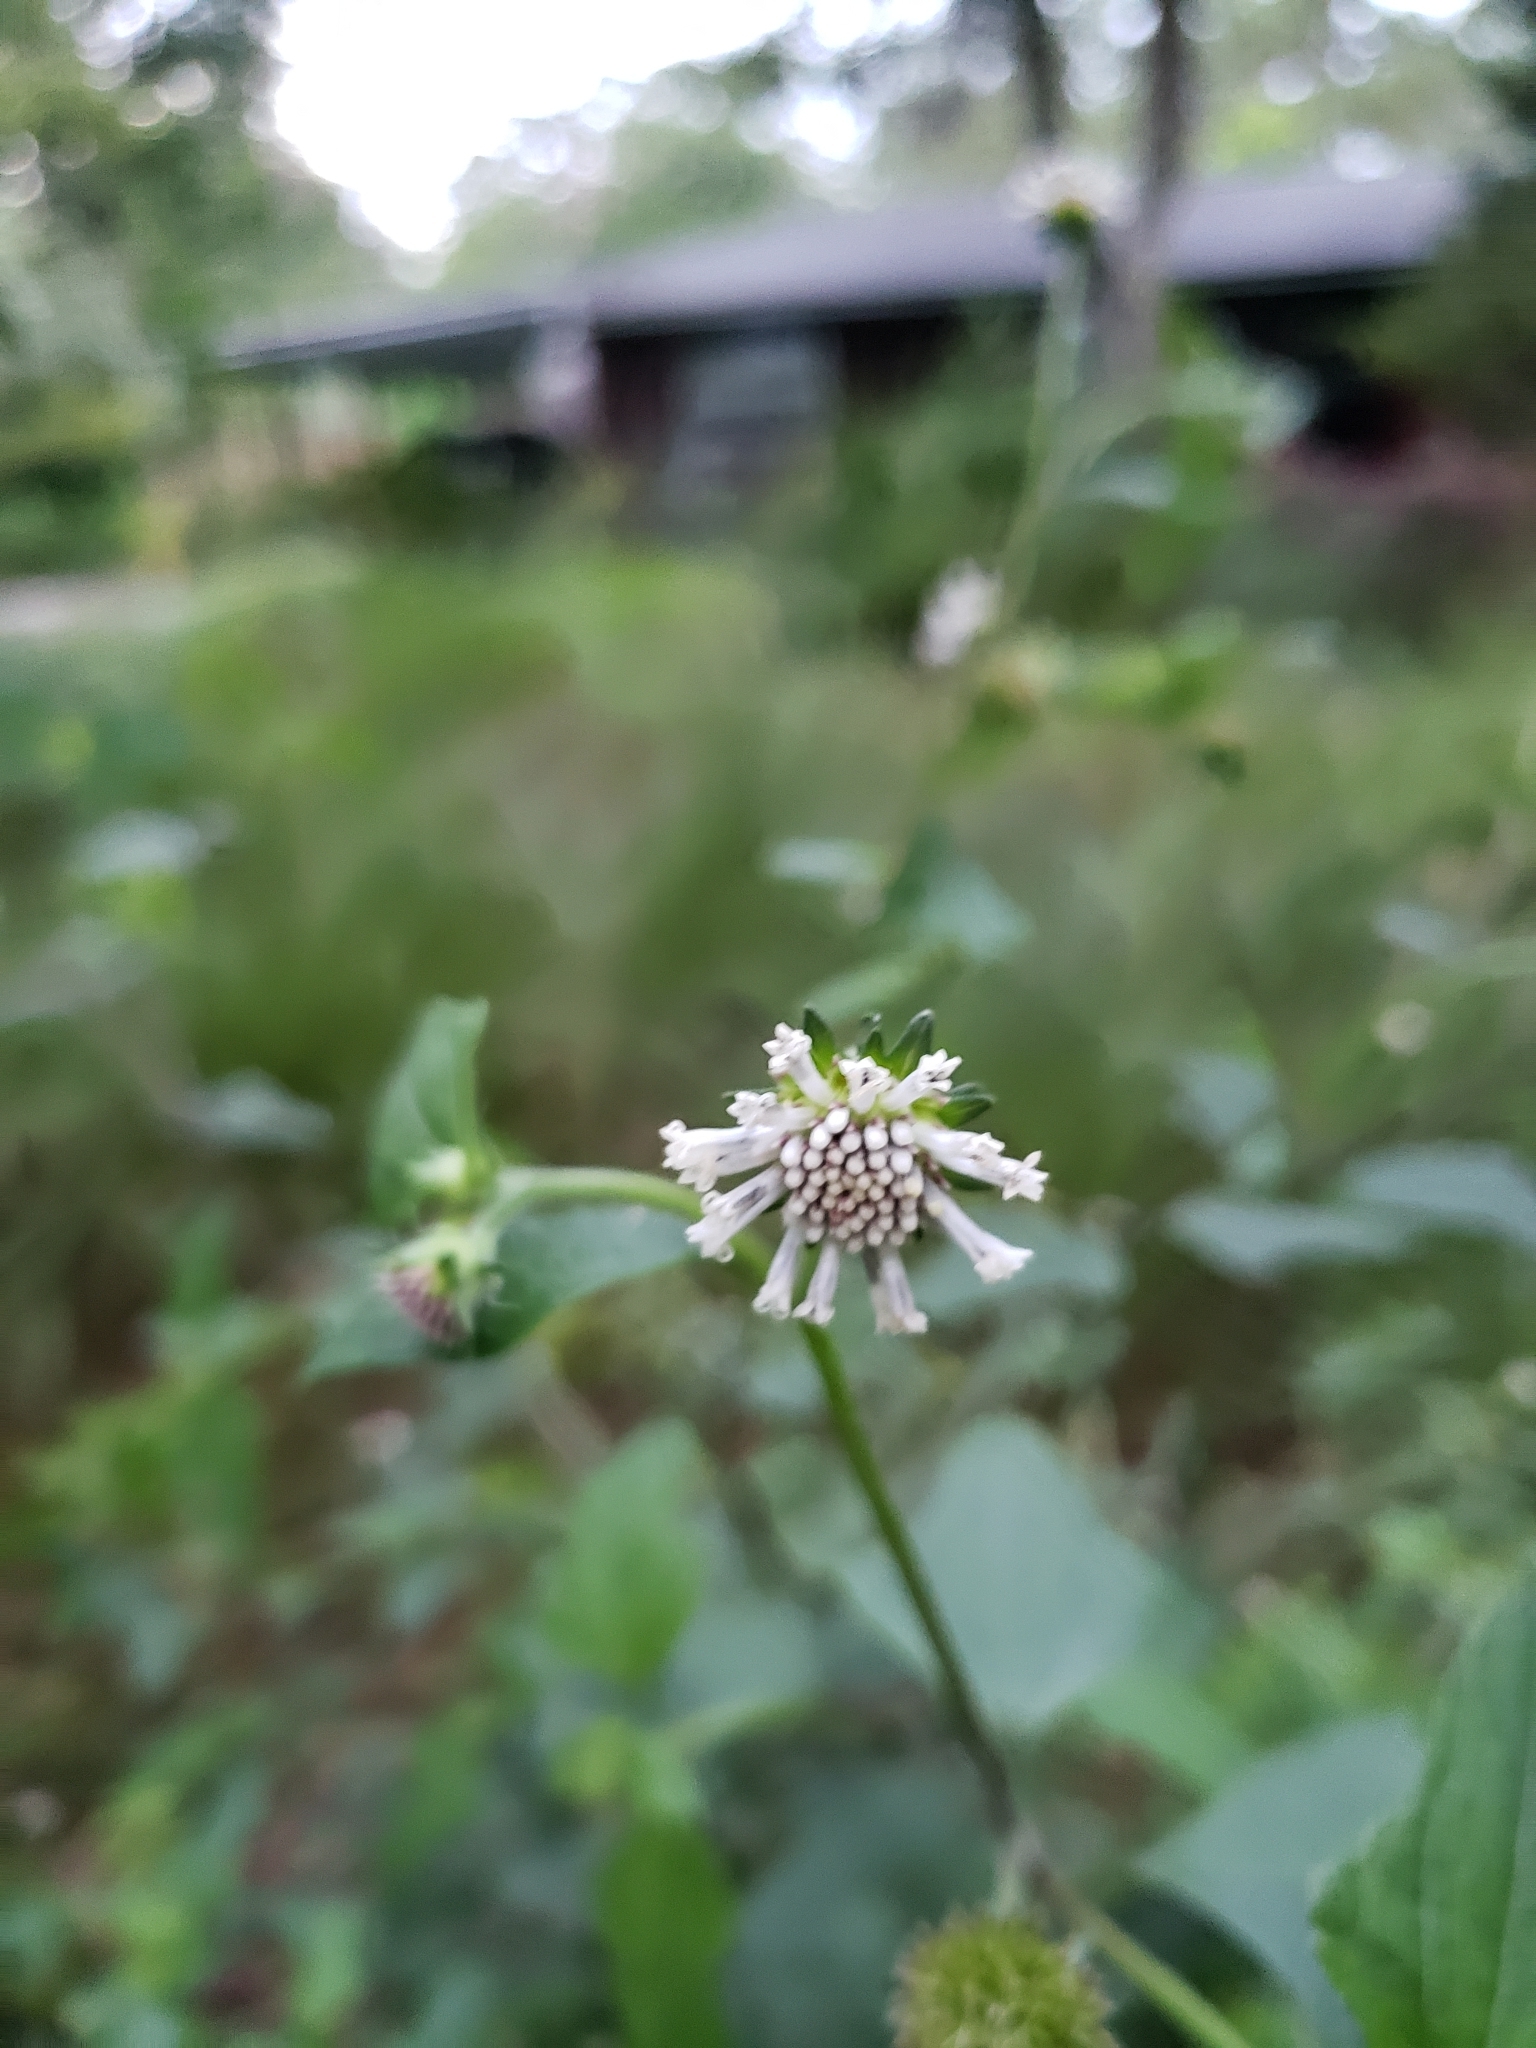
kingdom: Plantae
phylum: Tracheophyta
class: Magnoliopsida
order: Asterales
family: Asteraceae
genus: Melanthera
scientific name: Melanthera nivea
